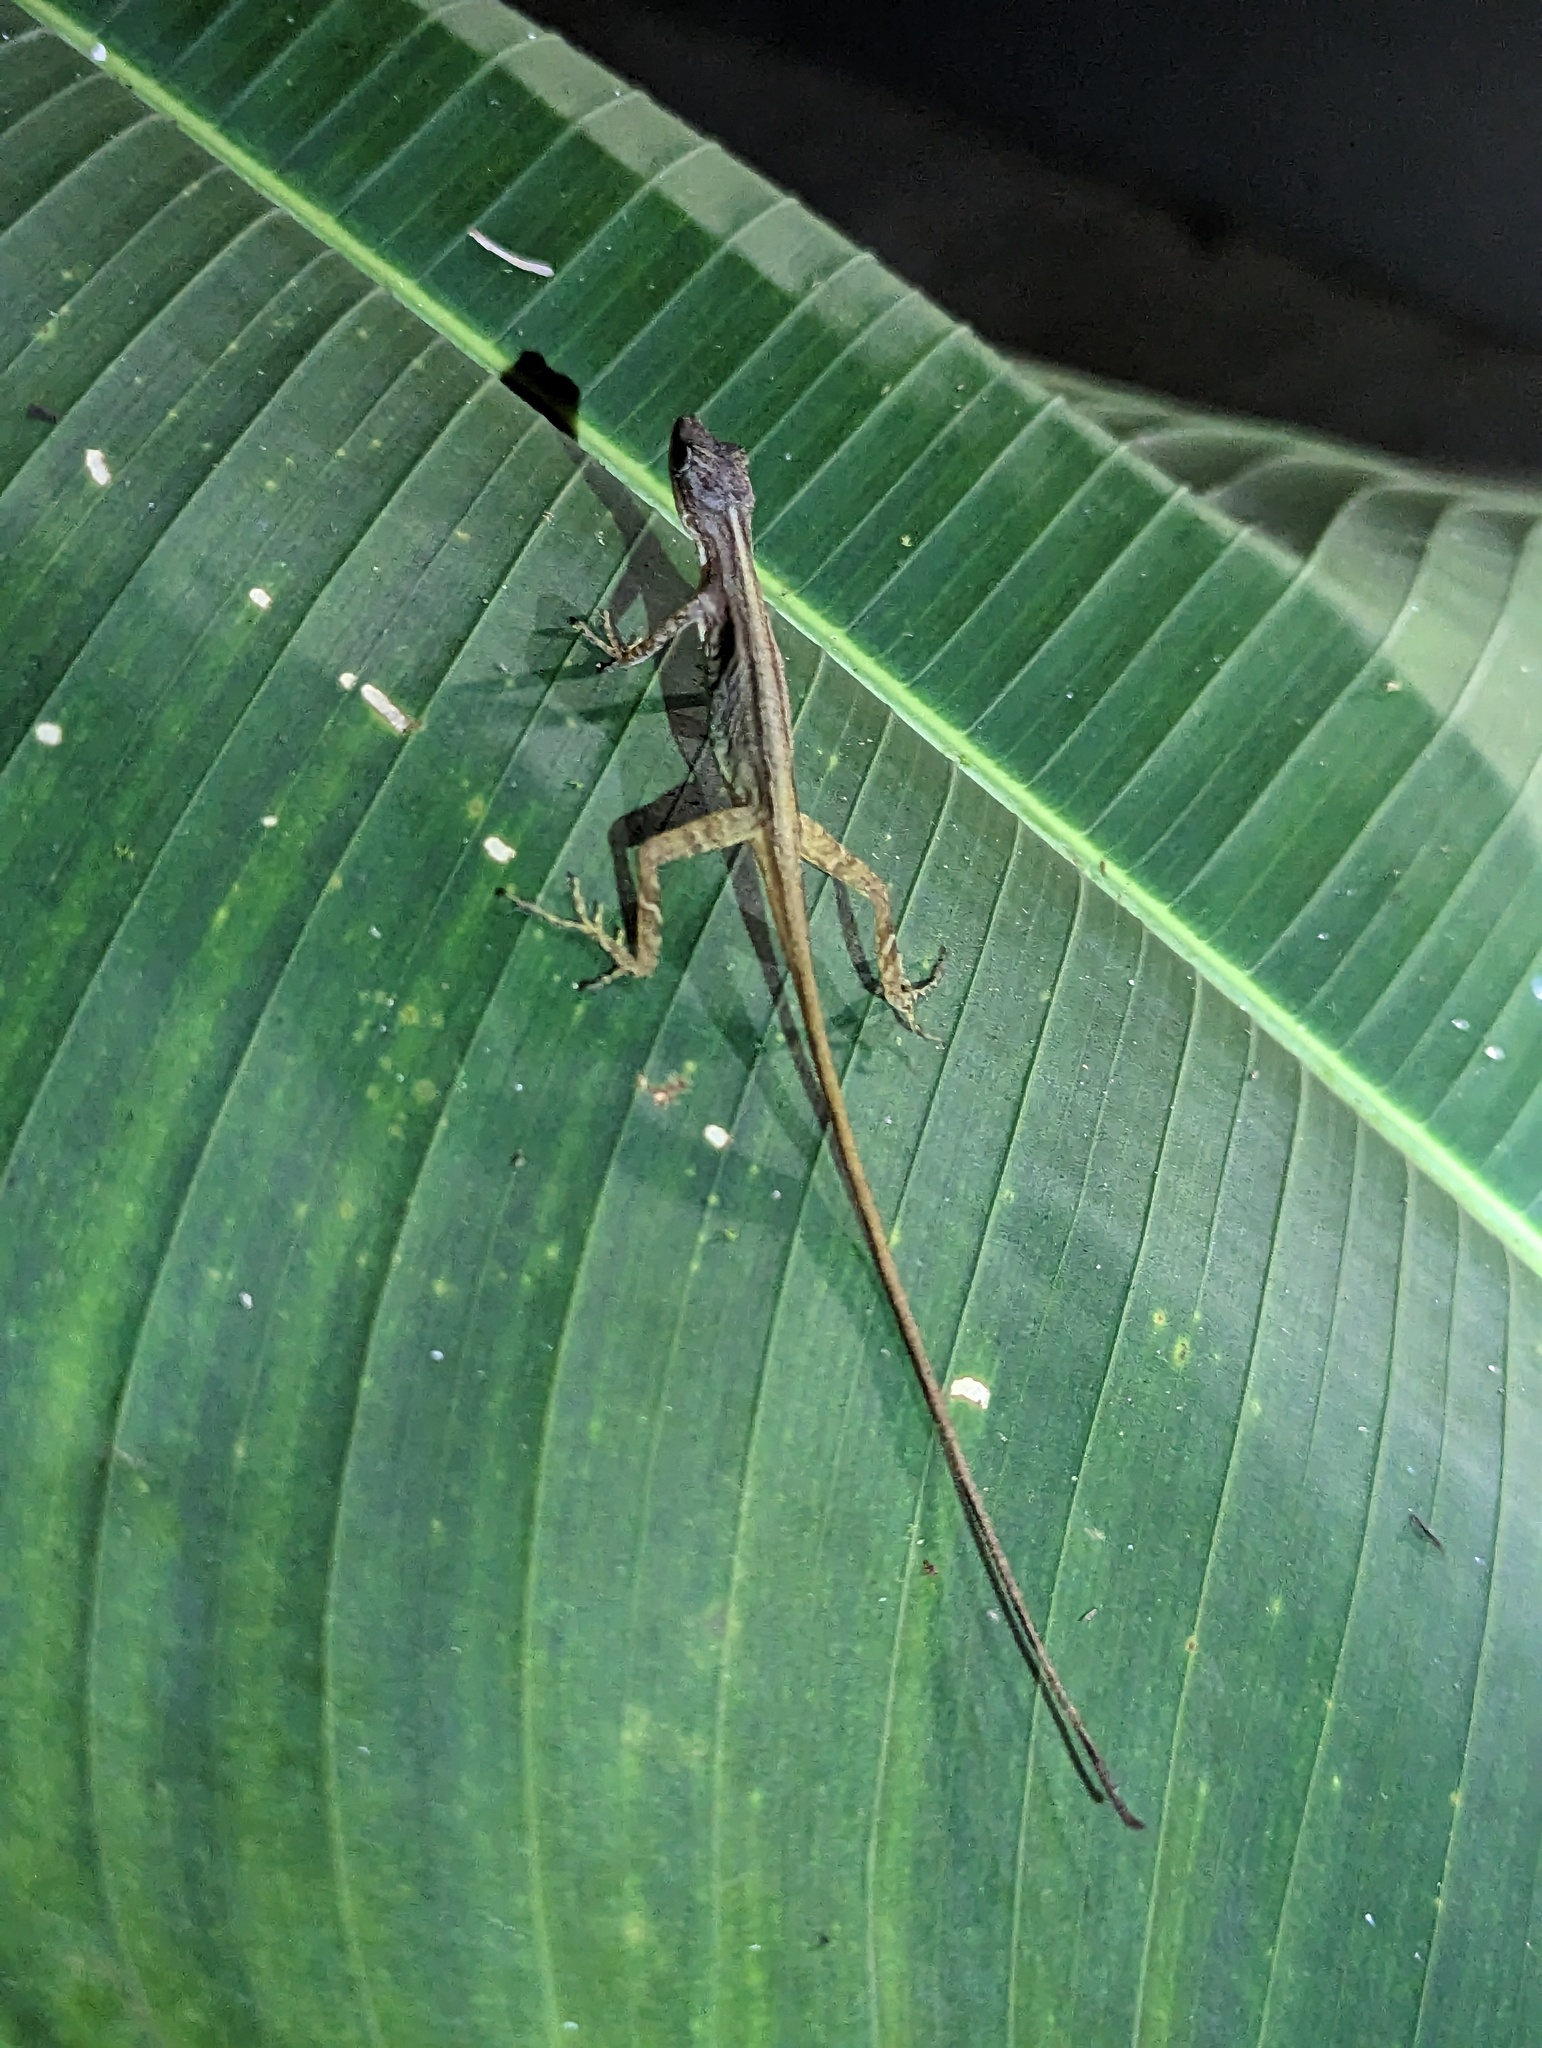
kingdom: Animalia
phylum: Chordata
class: Squamata
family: Dactyloidae
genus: Anolis
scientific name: Anolis limifrons
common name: Border anole
